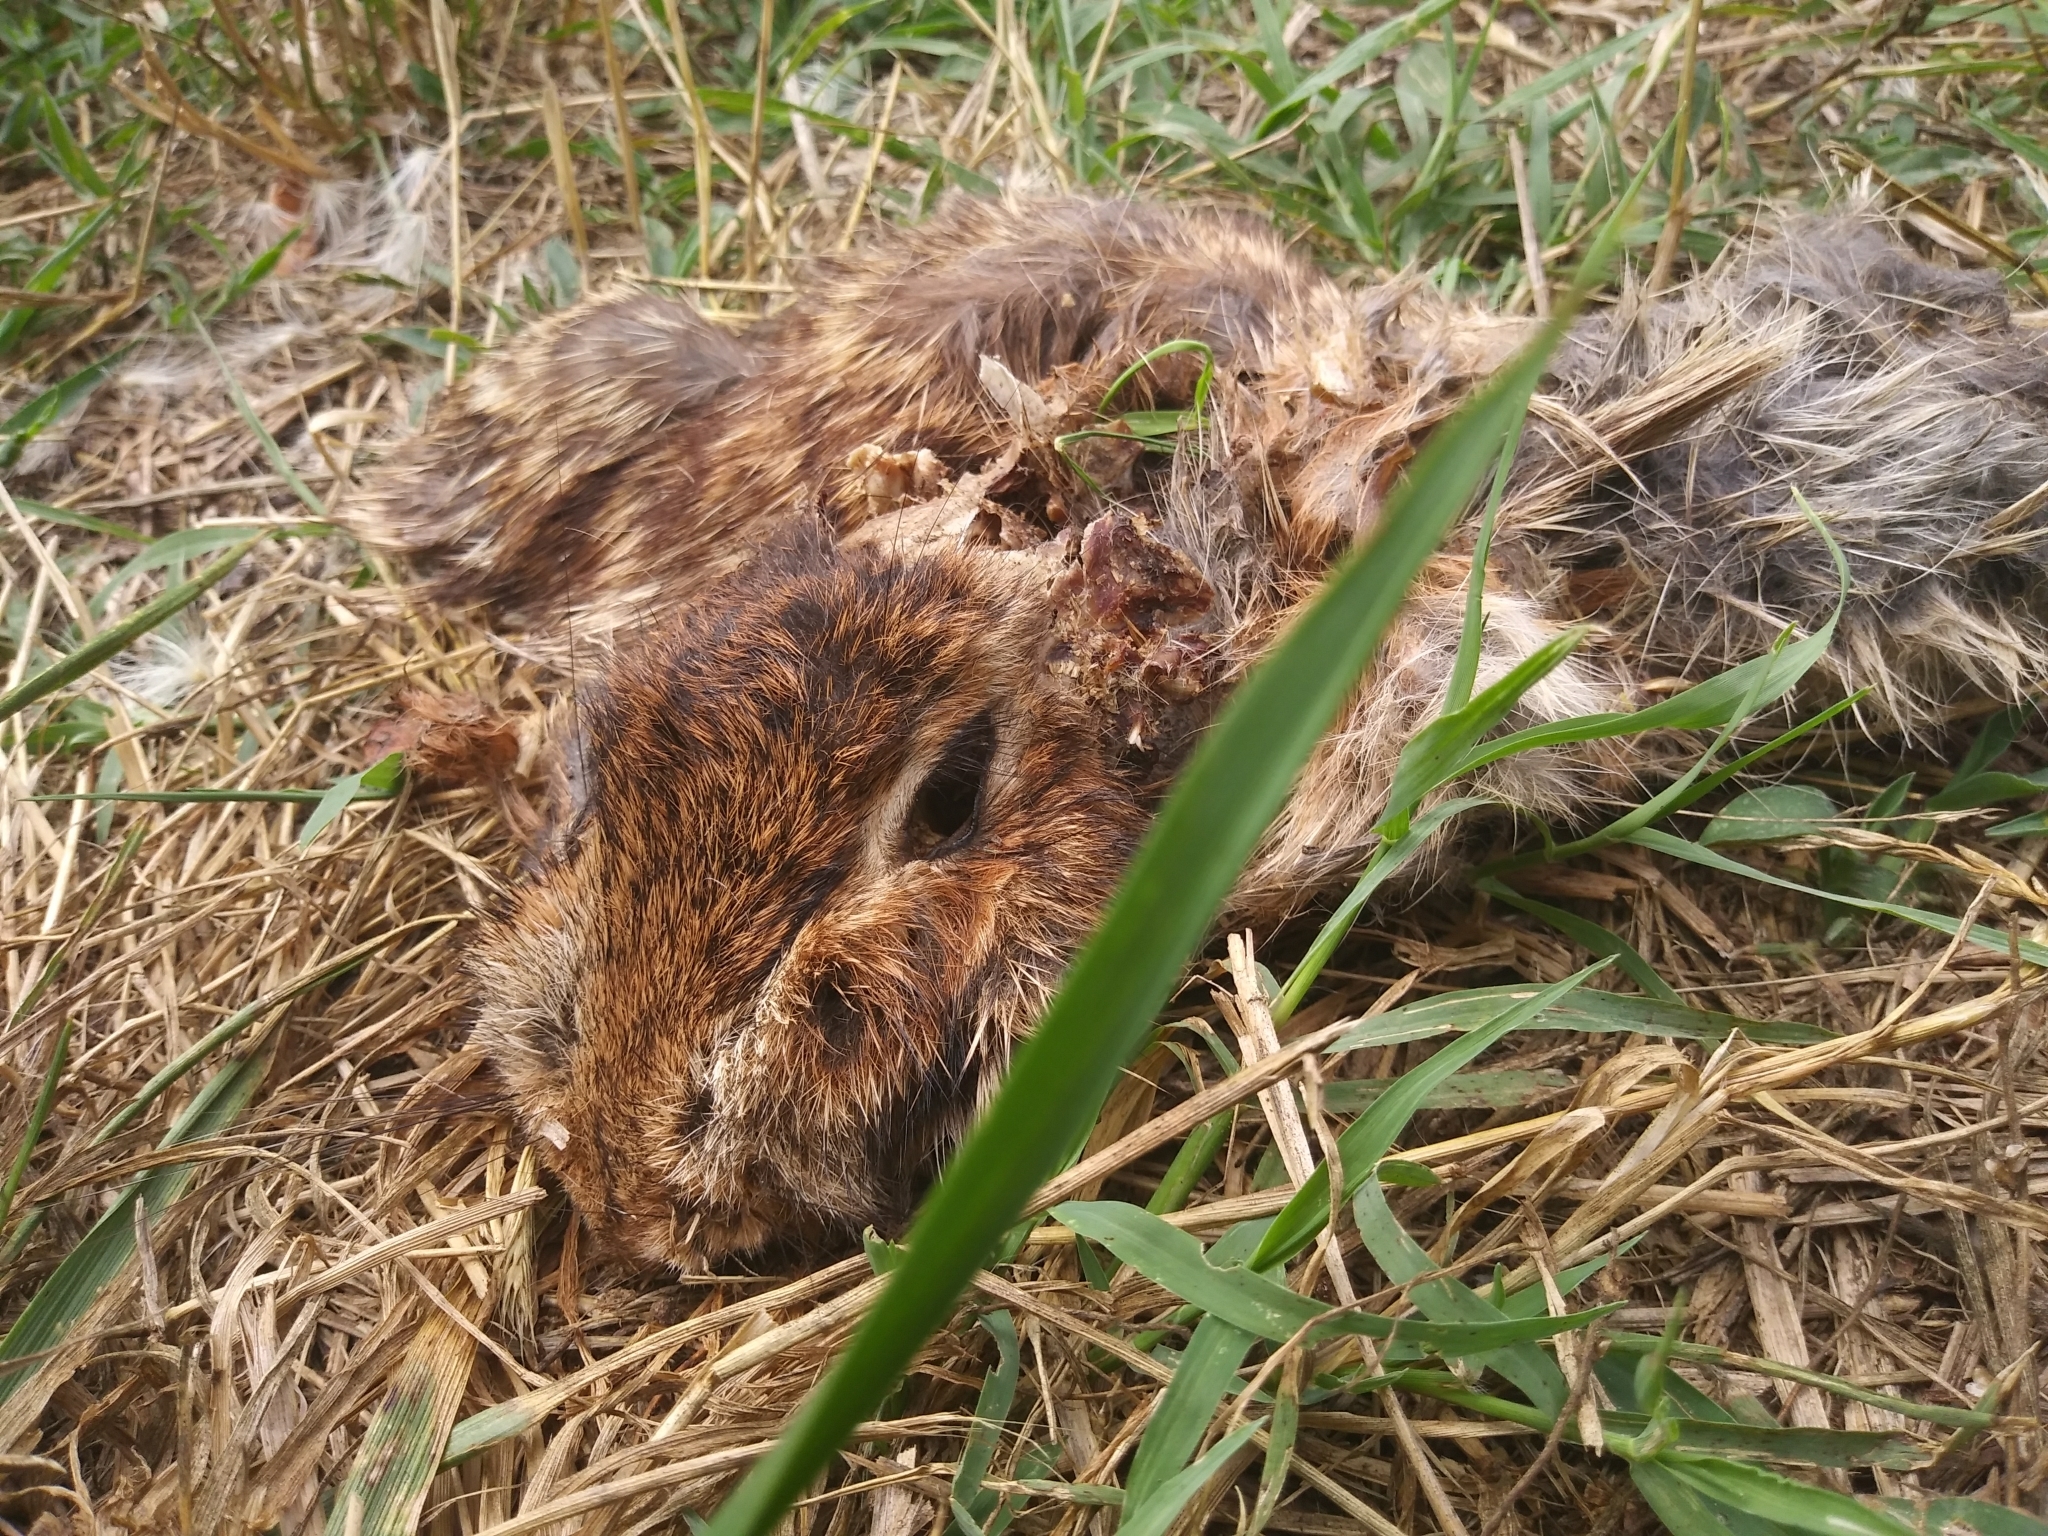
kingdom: Animalia
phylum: Chordata
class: Mammalia
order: Lagomorpha
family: Leporidae
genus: Sylvilagus
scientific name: Sylvilagus floridanus
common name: Eastern cottontail
